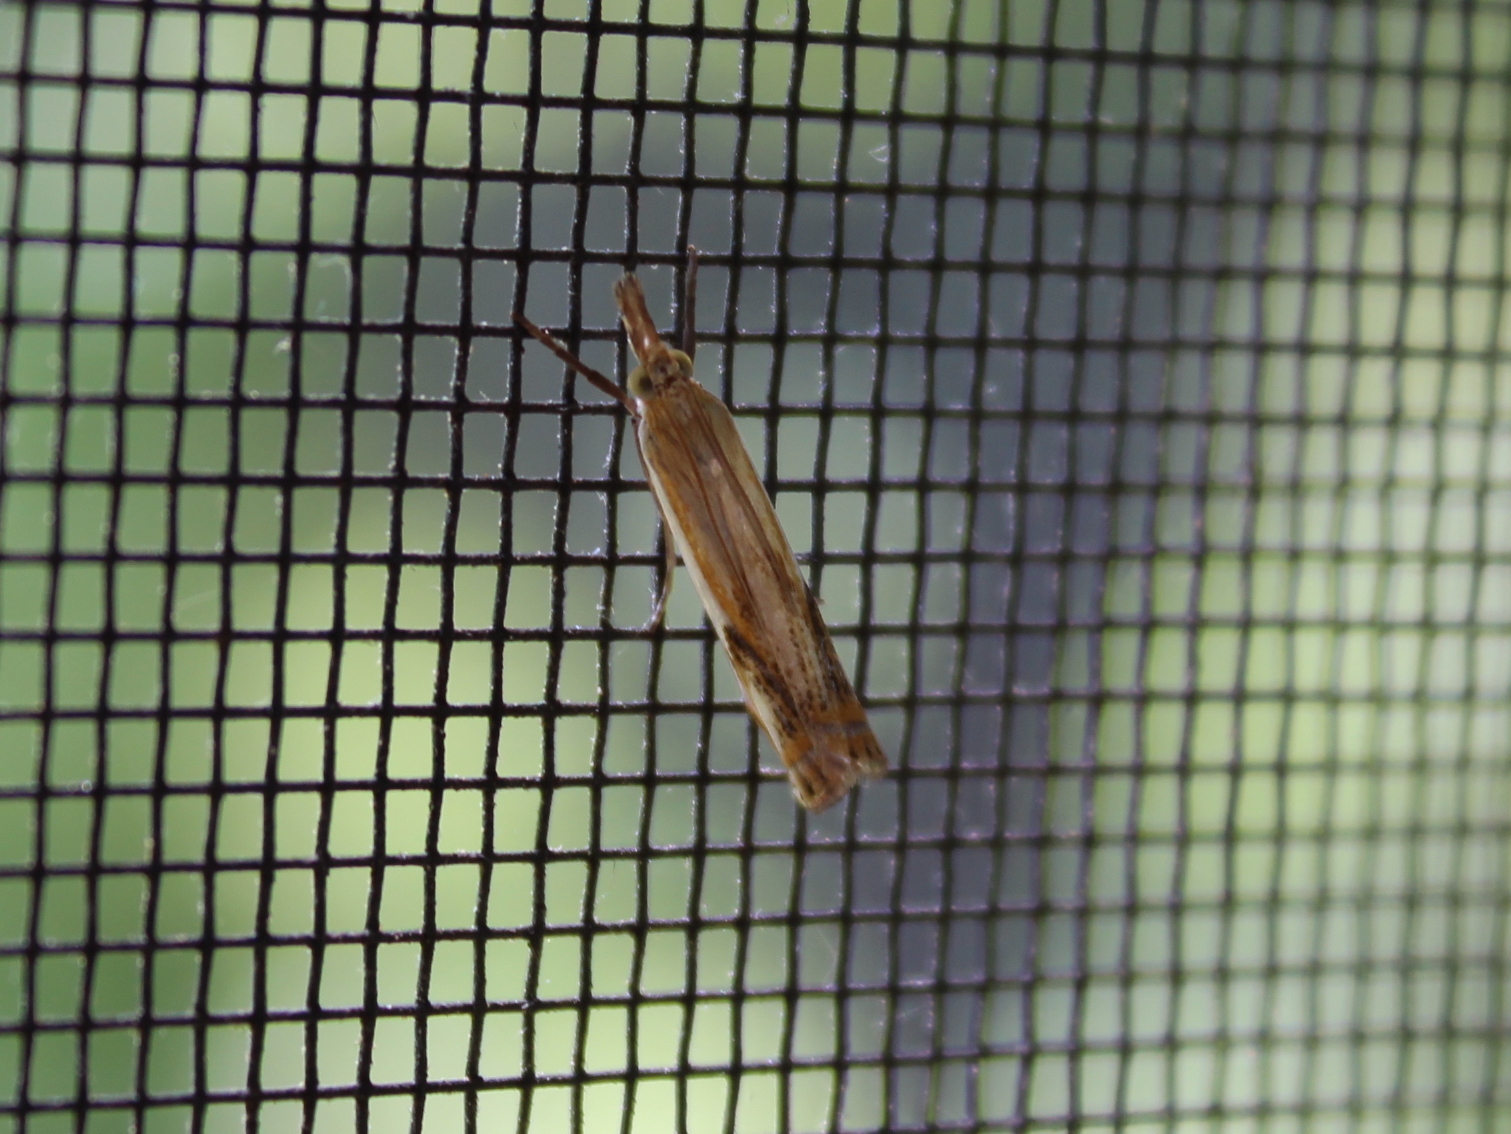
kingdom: Animalia
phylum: Arthropoda
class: Insecta
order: Lepidoptera
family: Crambidae
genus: Crambus
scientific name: Crambus agitatellus
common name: Double-banded grass-veneer
